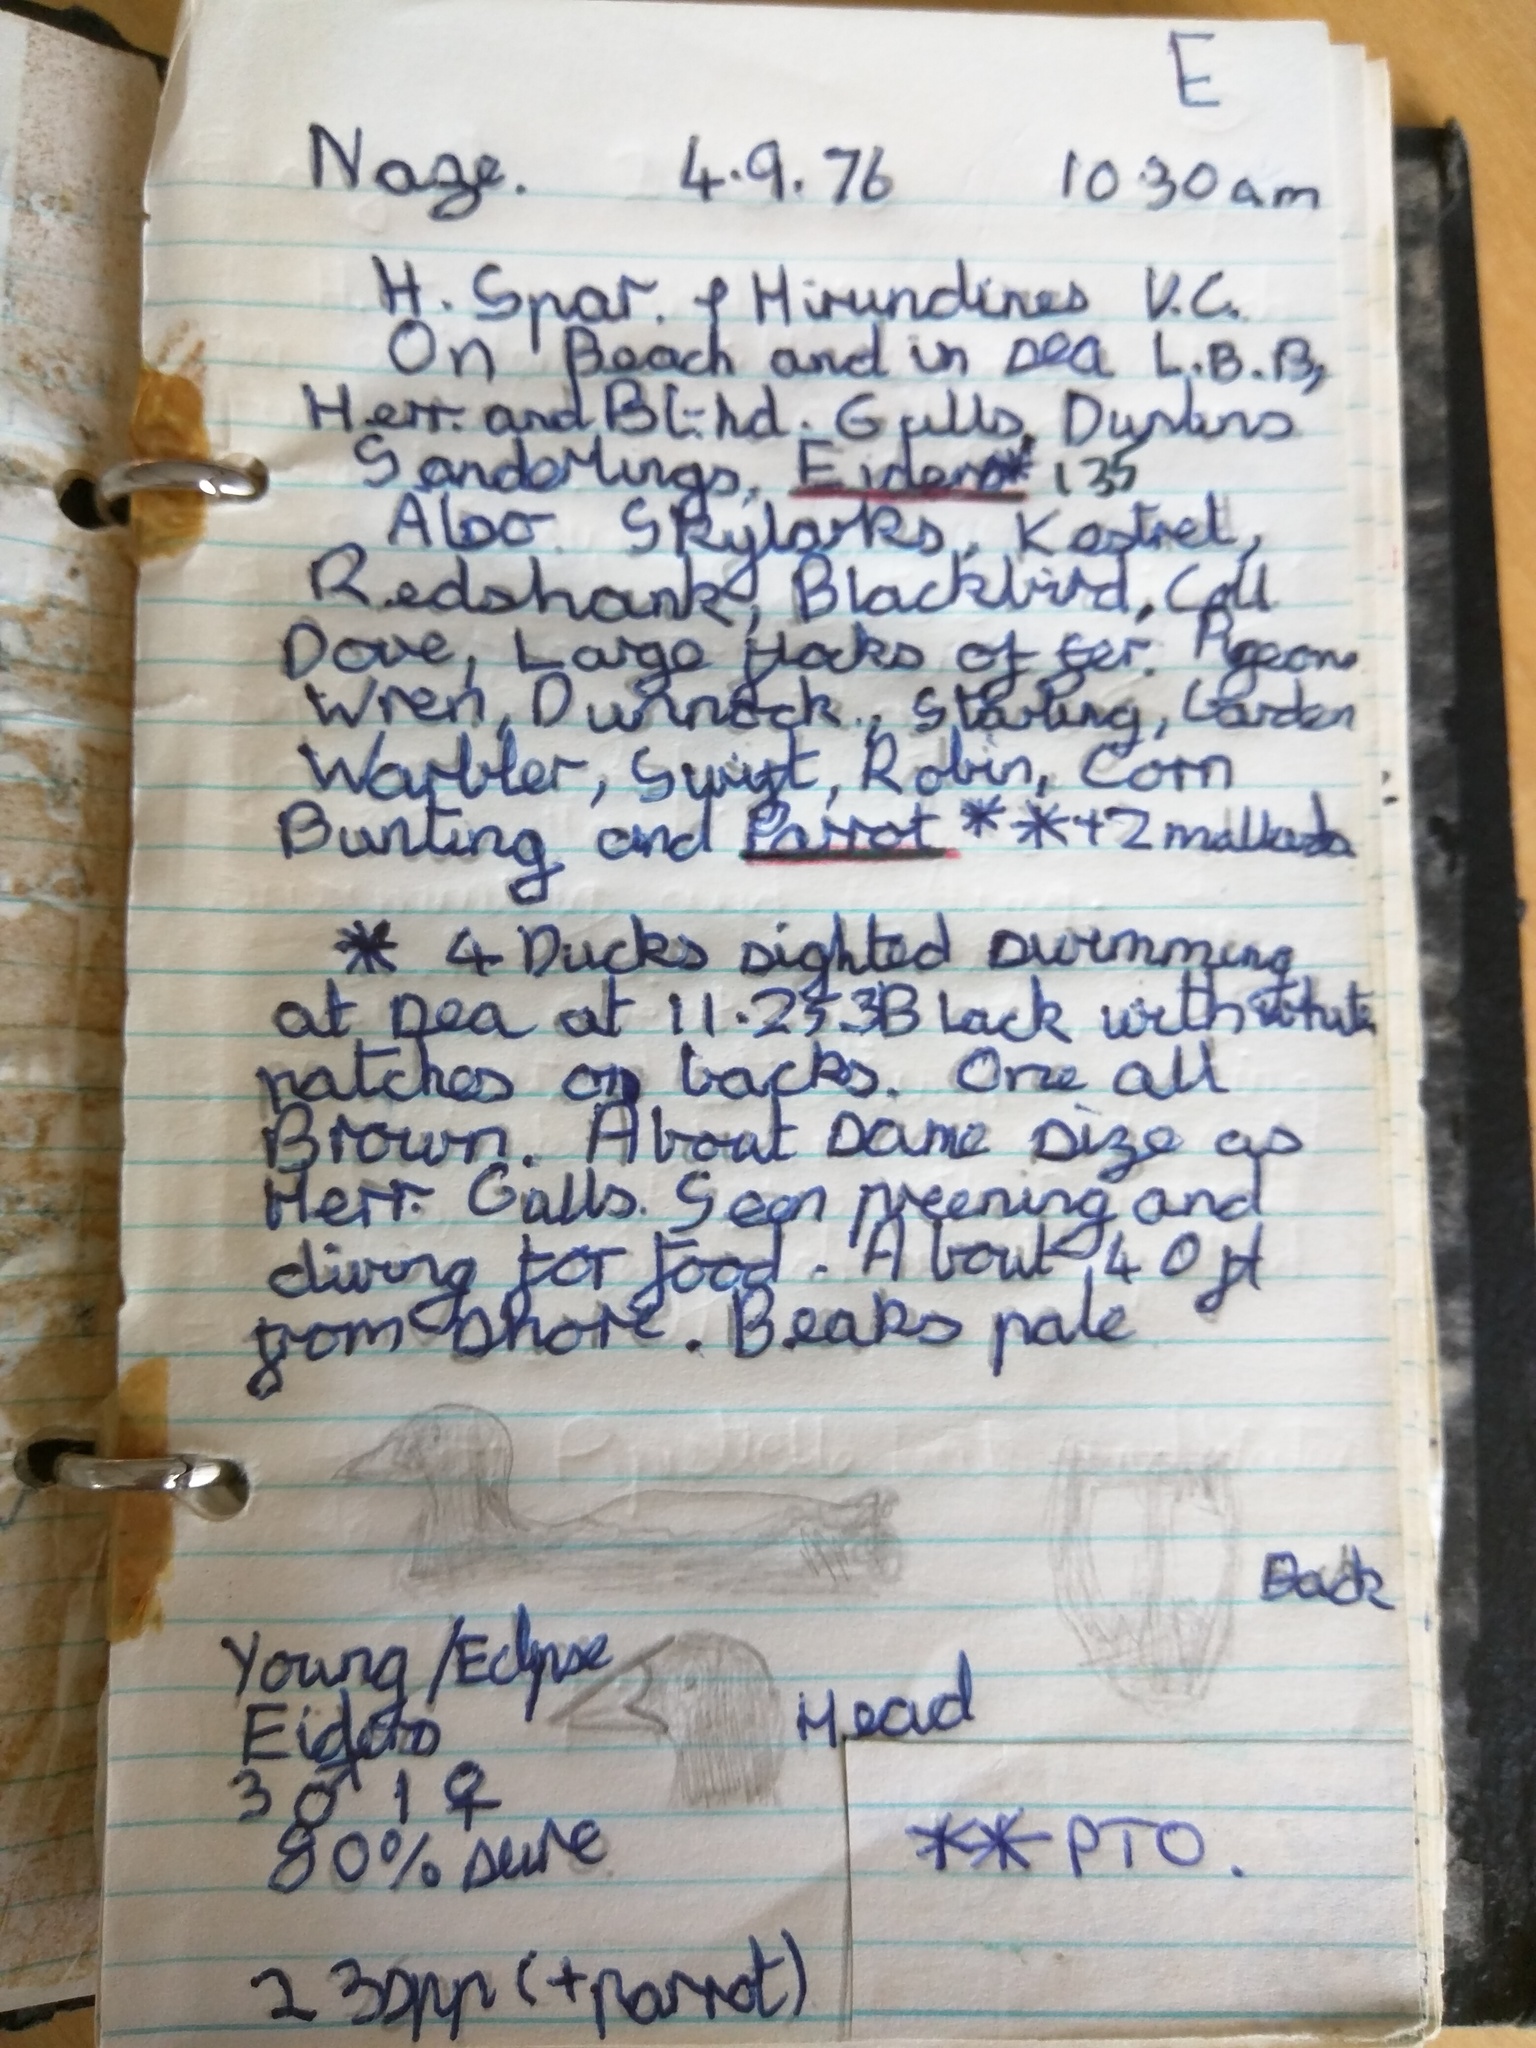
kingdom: Animalia
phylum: Chordata
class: Aves
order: Anseriformes
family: Anatidae
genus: Somateria
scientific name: Somateria mollissima
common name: Common eider
